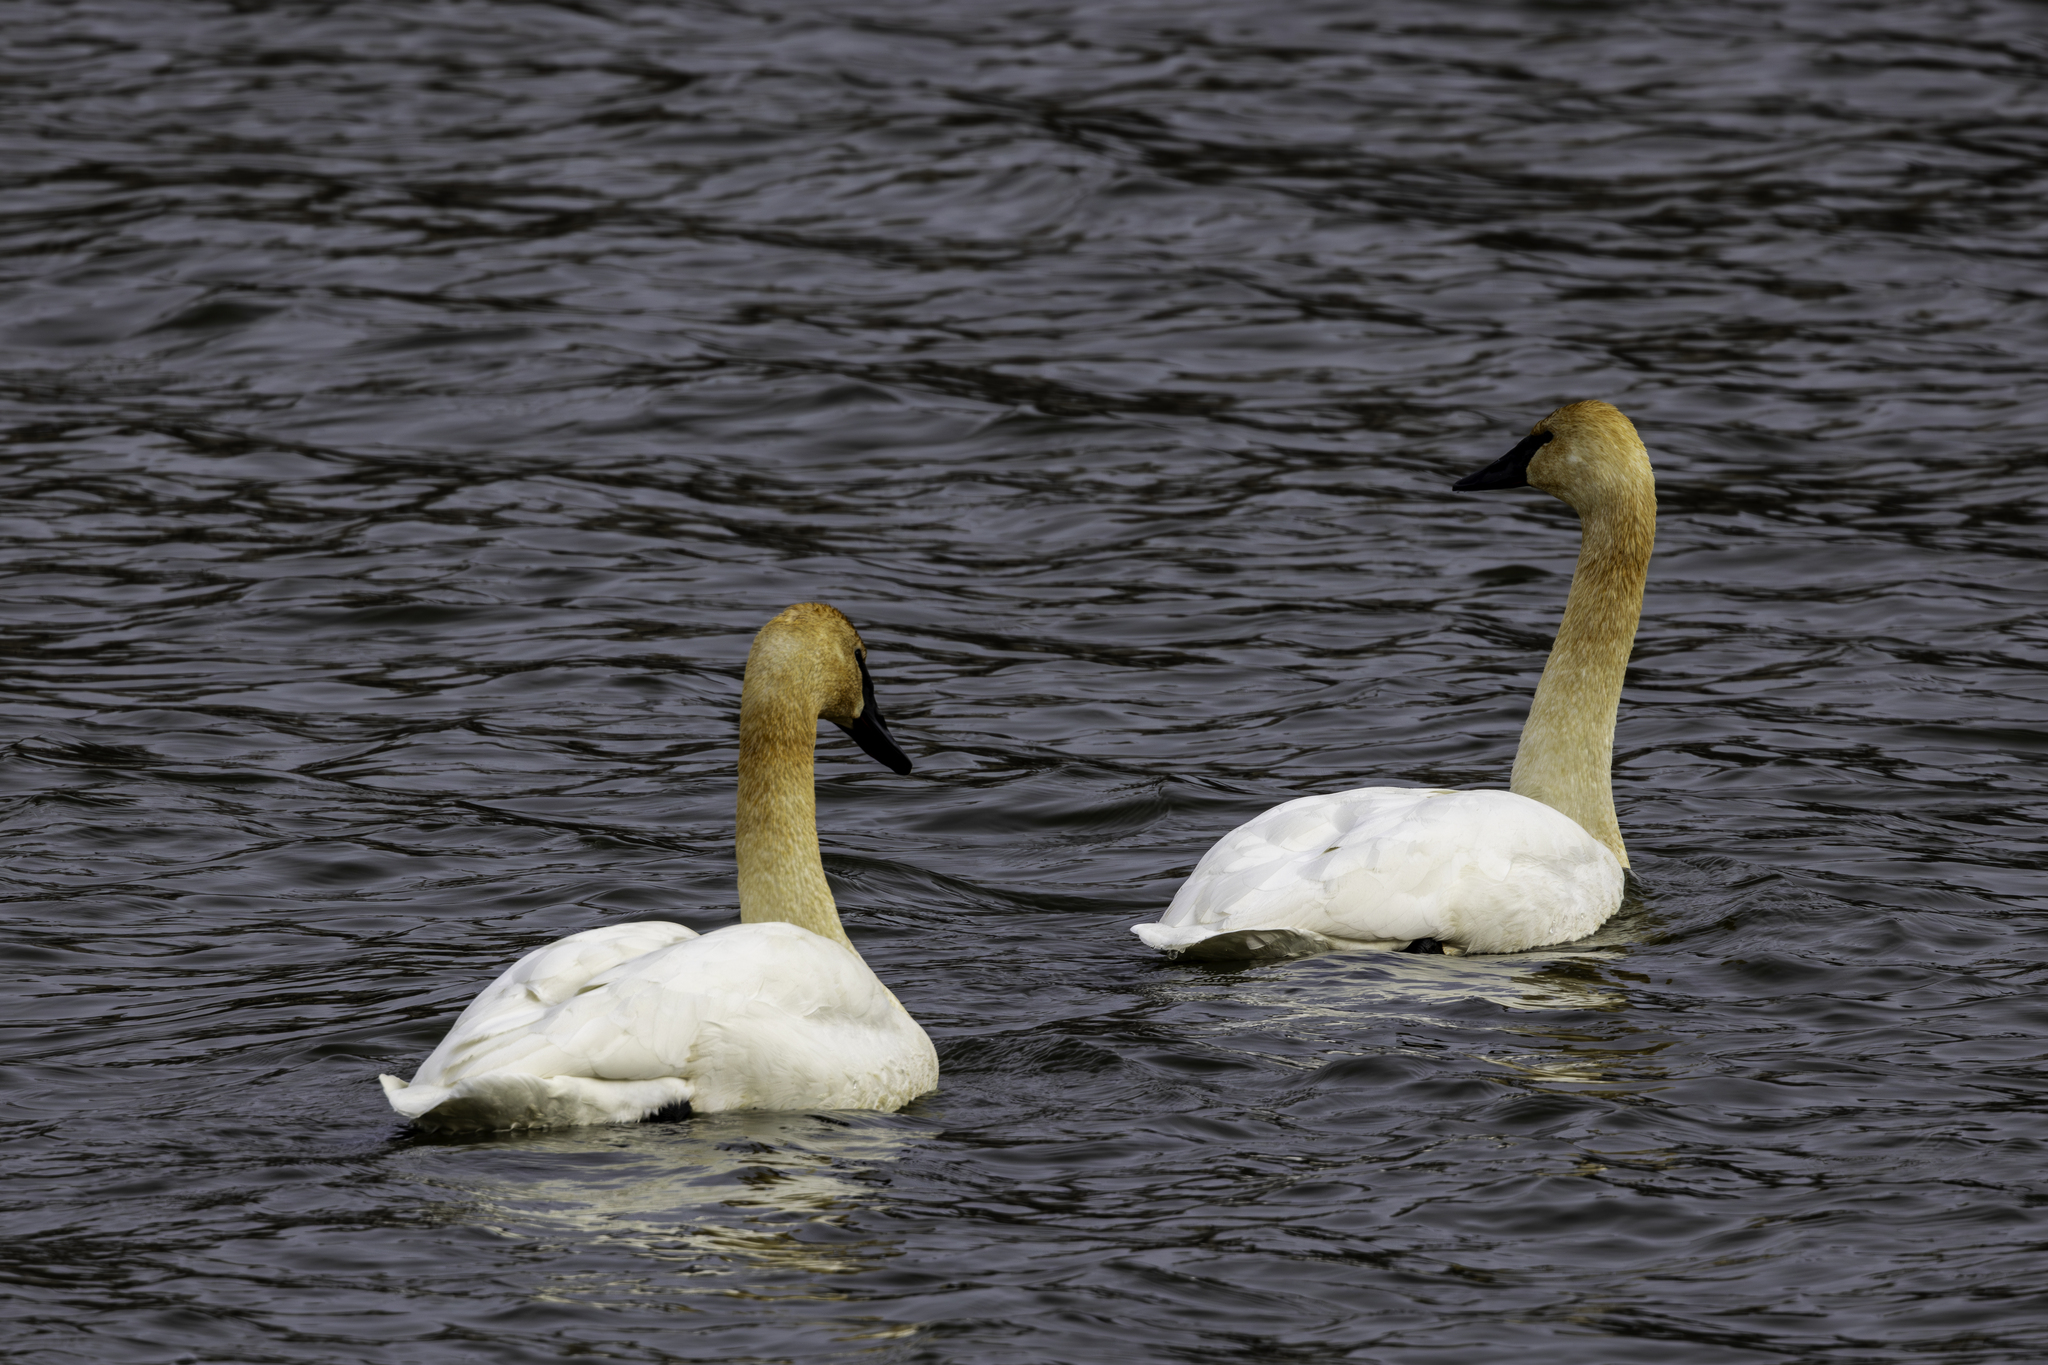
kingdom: Animalia
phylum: Chordata
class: Aves
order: Anseriformes
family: Anatidae
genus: Cygnus
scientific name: Cygnus buccinator
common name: Trumpeter swan
